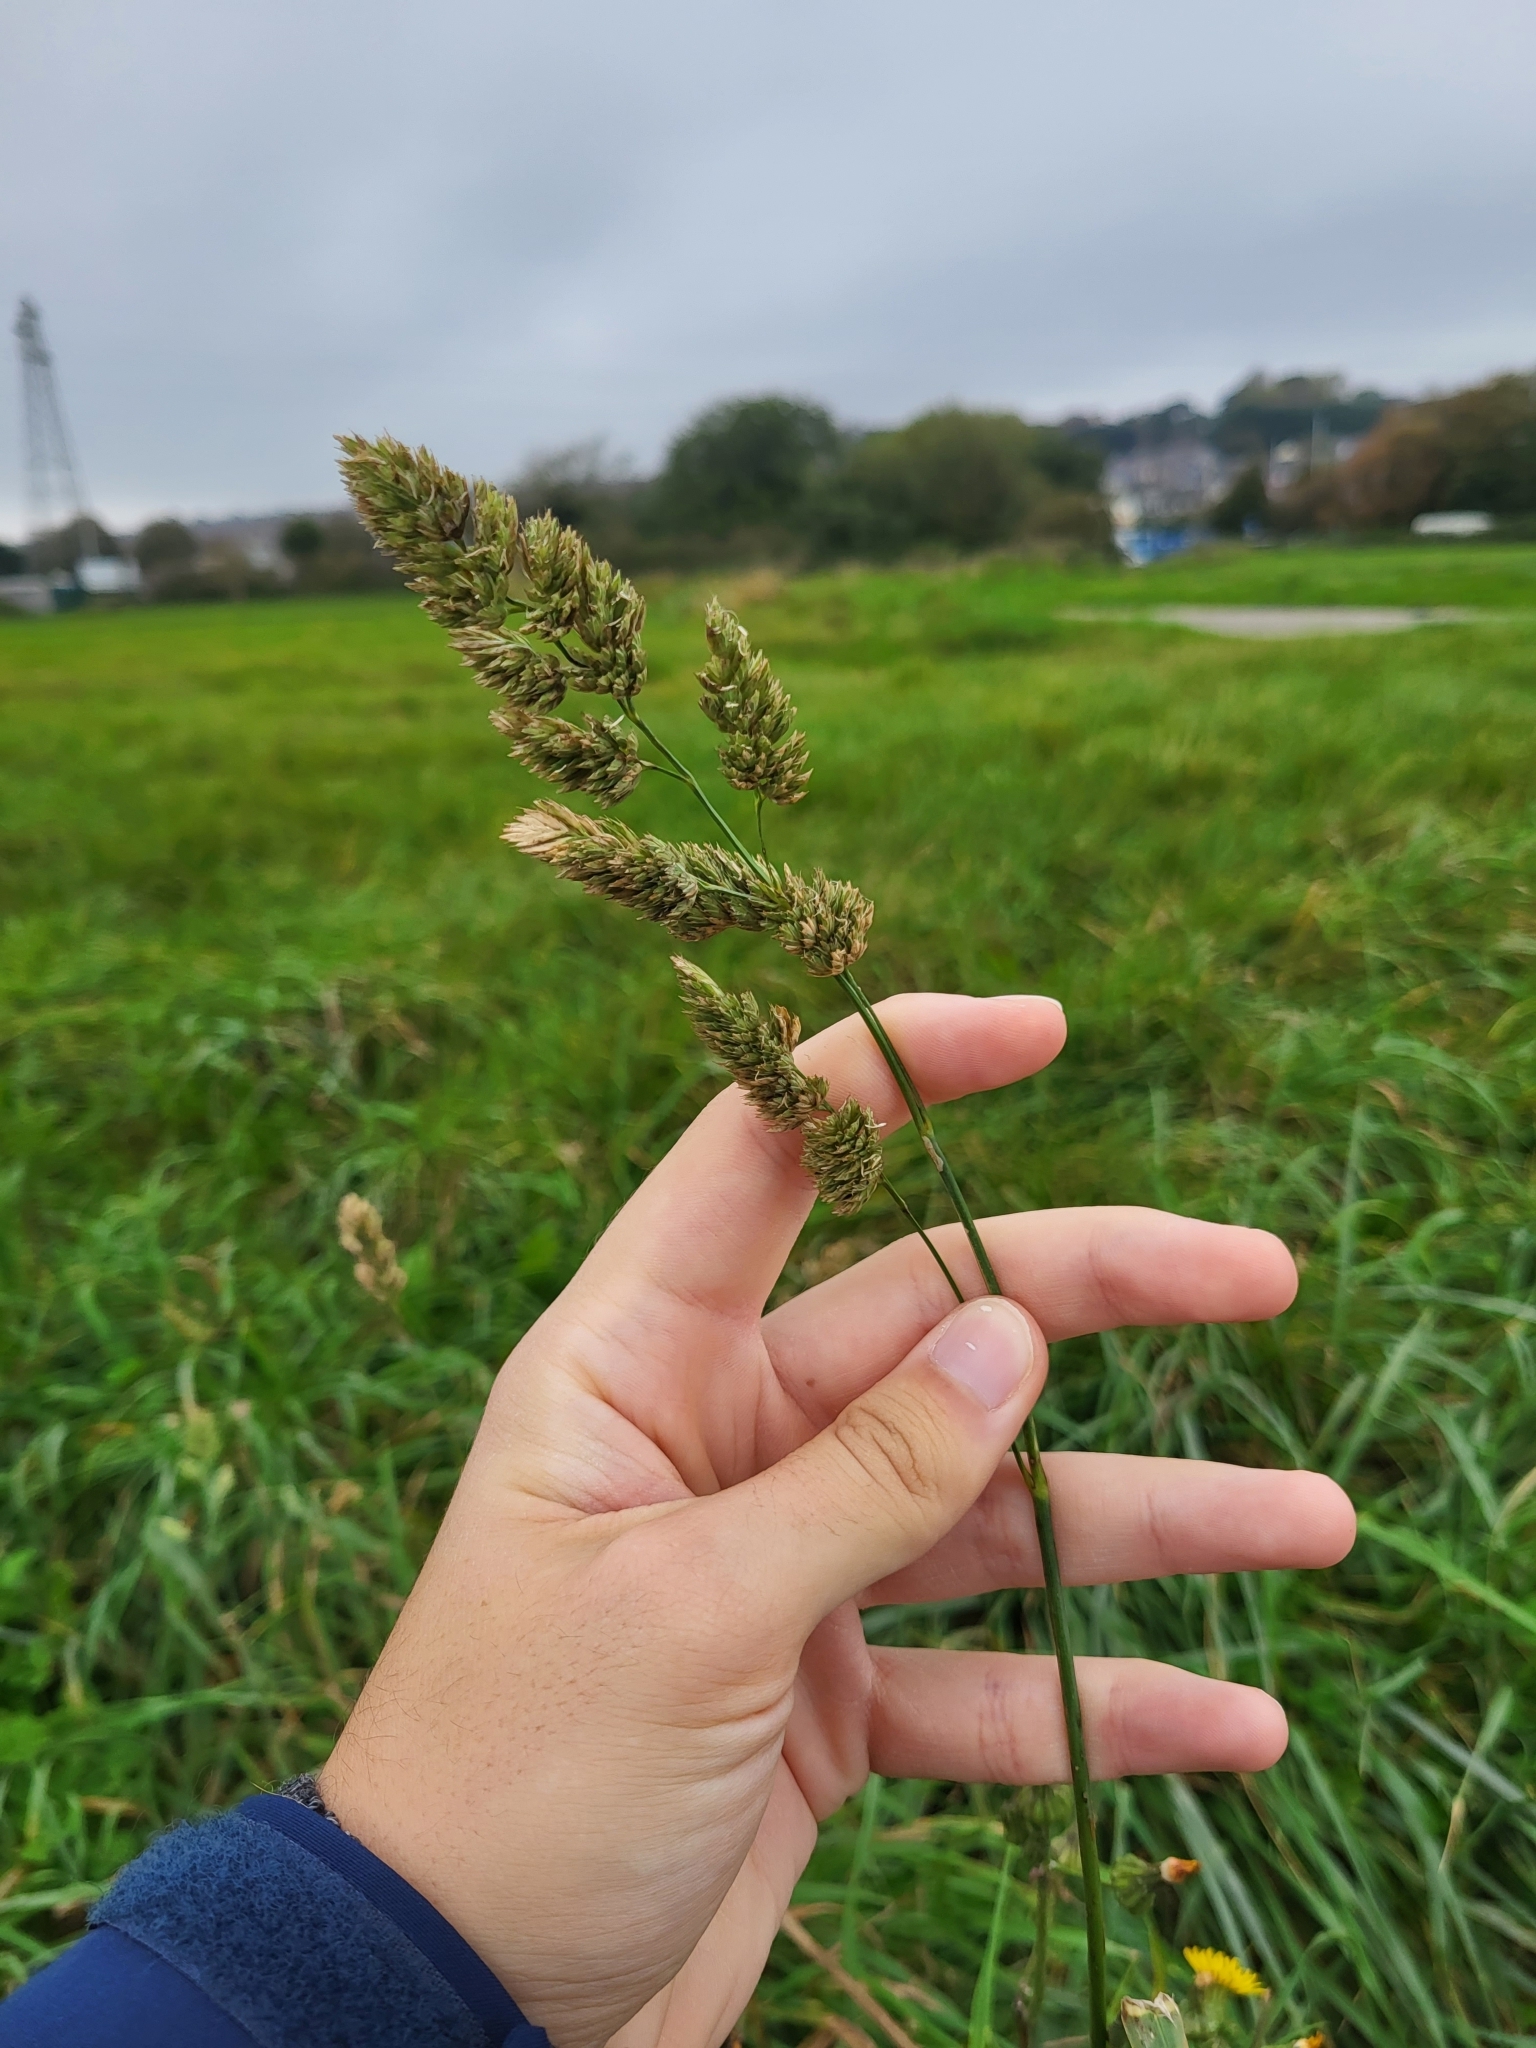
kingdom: Plantae
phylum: Tracheophyta
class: Liliopsida
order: Poales
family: Poaceae
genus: Dactylis
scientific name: Dactylis glomerata
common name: Orchardgrass
